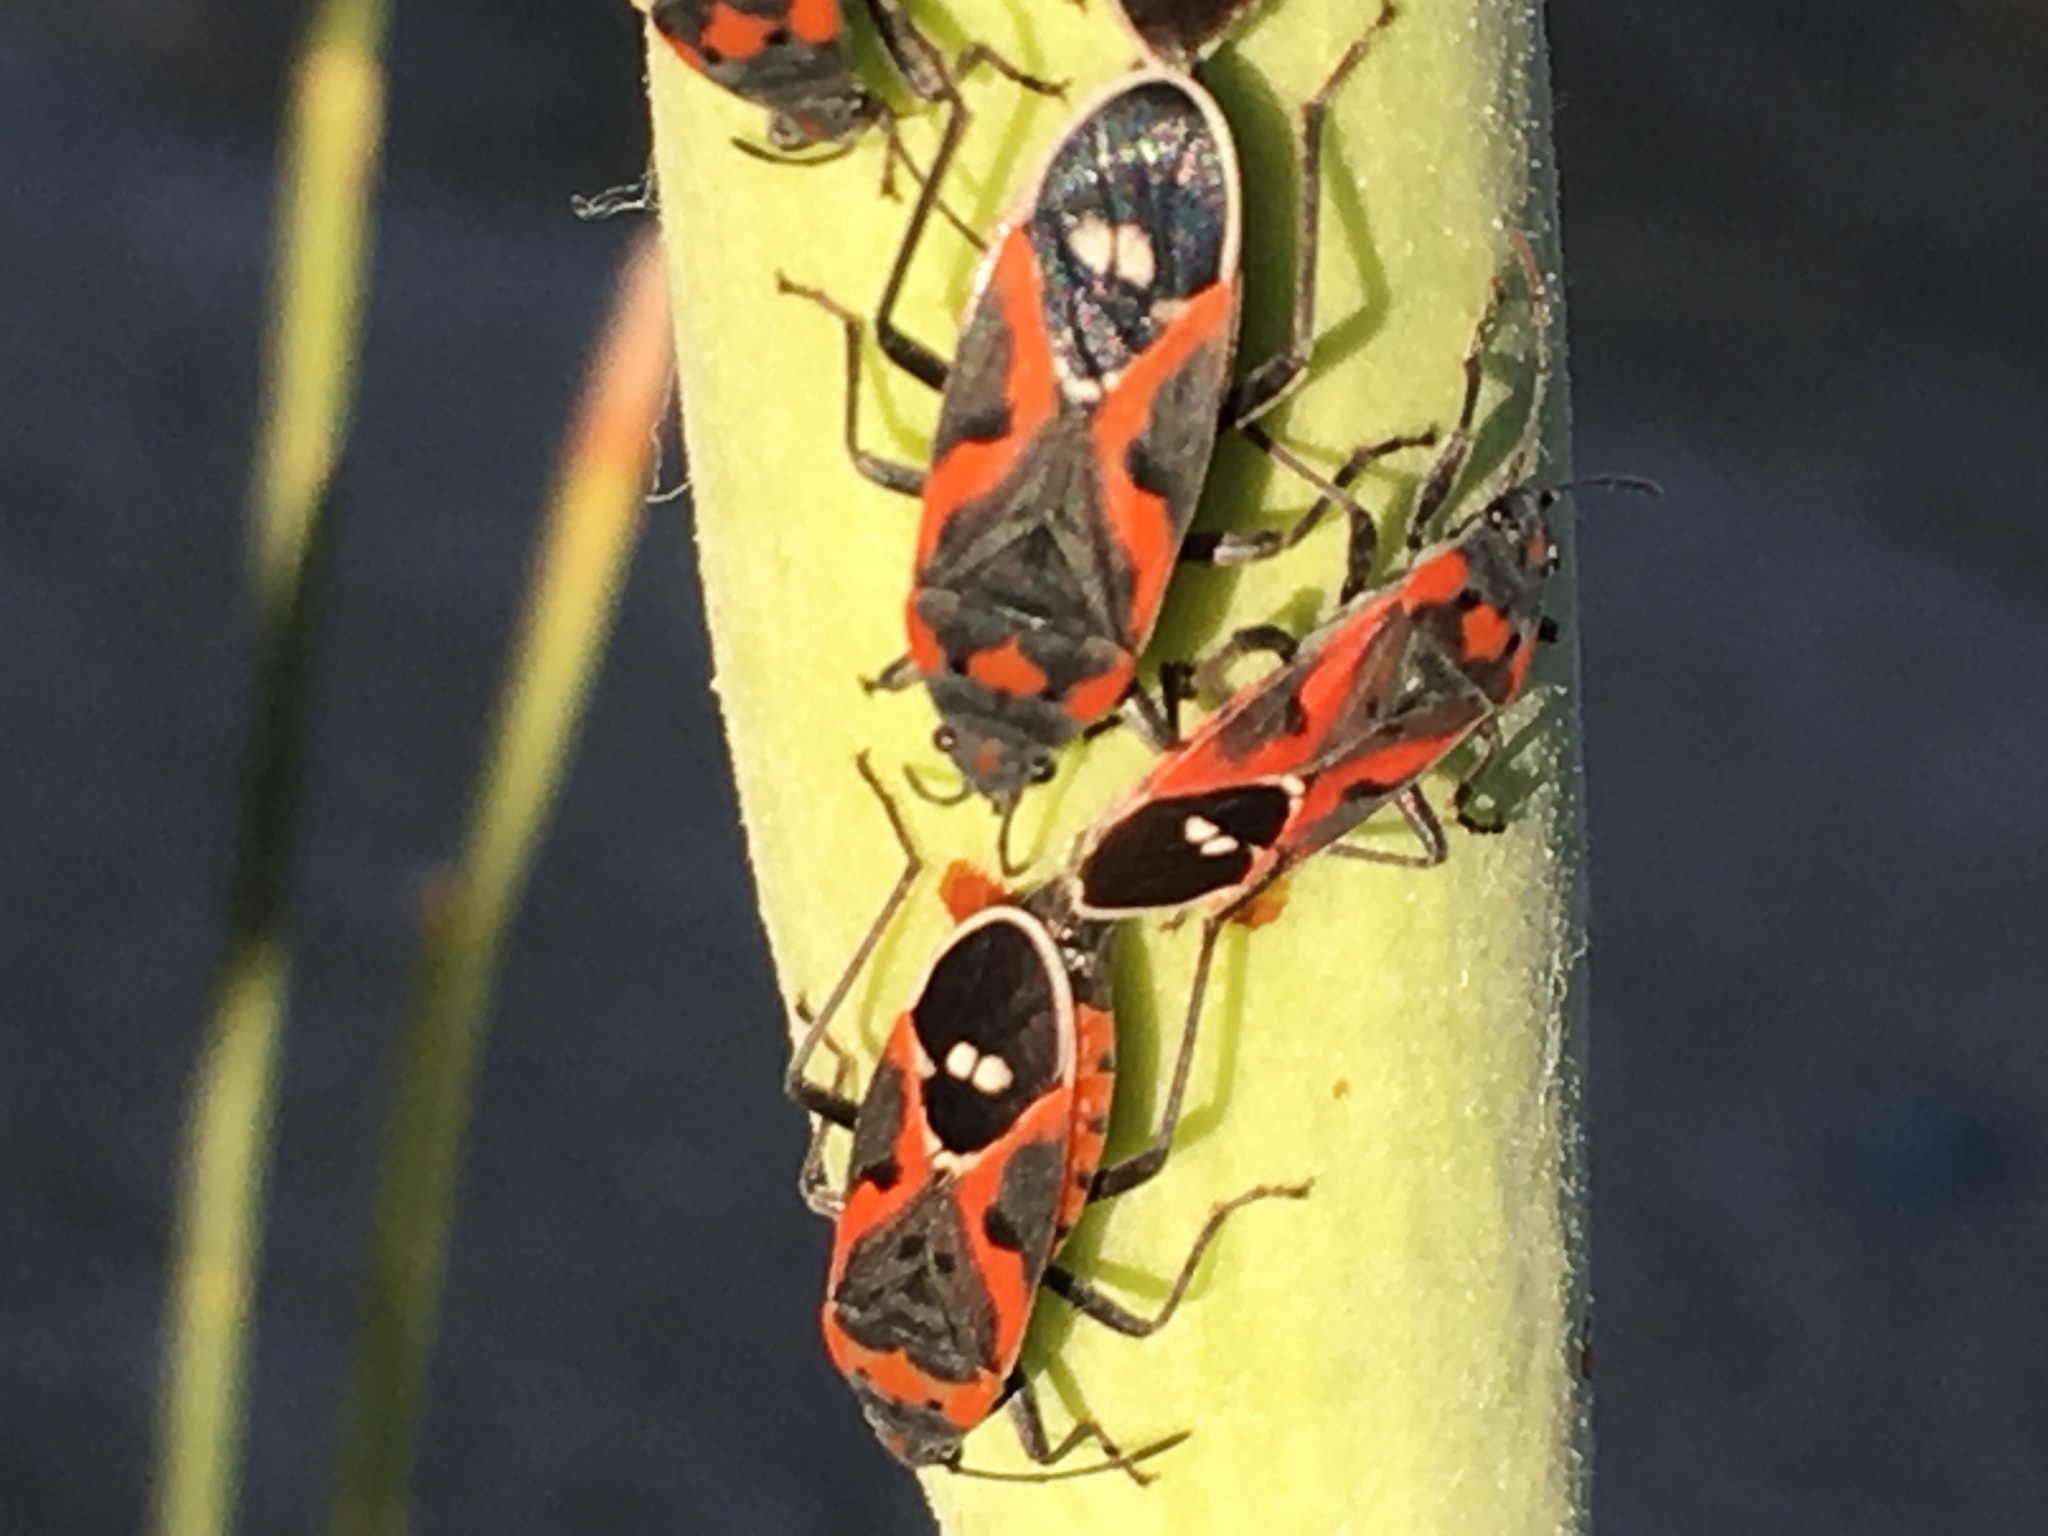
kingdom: Animalia
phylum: Arthropoda
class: Insecta
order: Hemiptera
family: Lygaeidae
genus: Lygaeus
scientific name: Lygaeus kalmii
